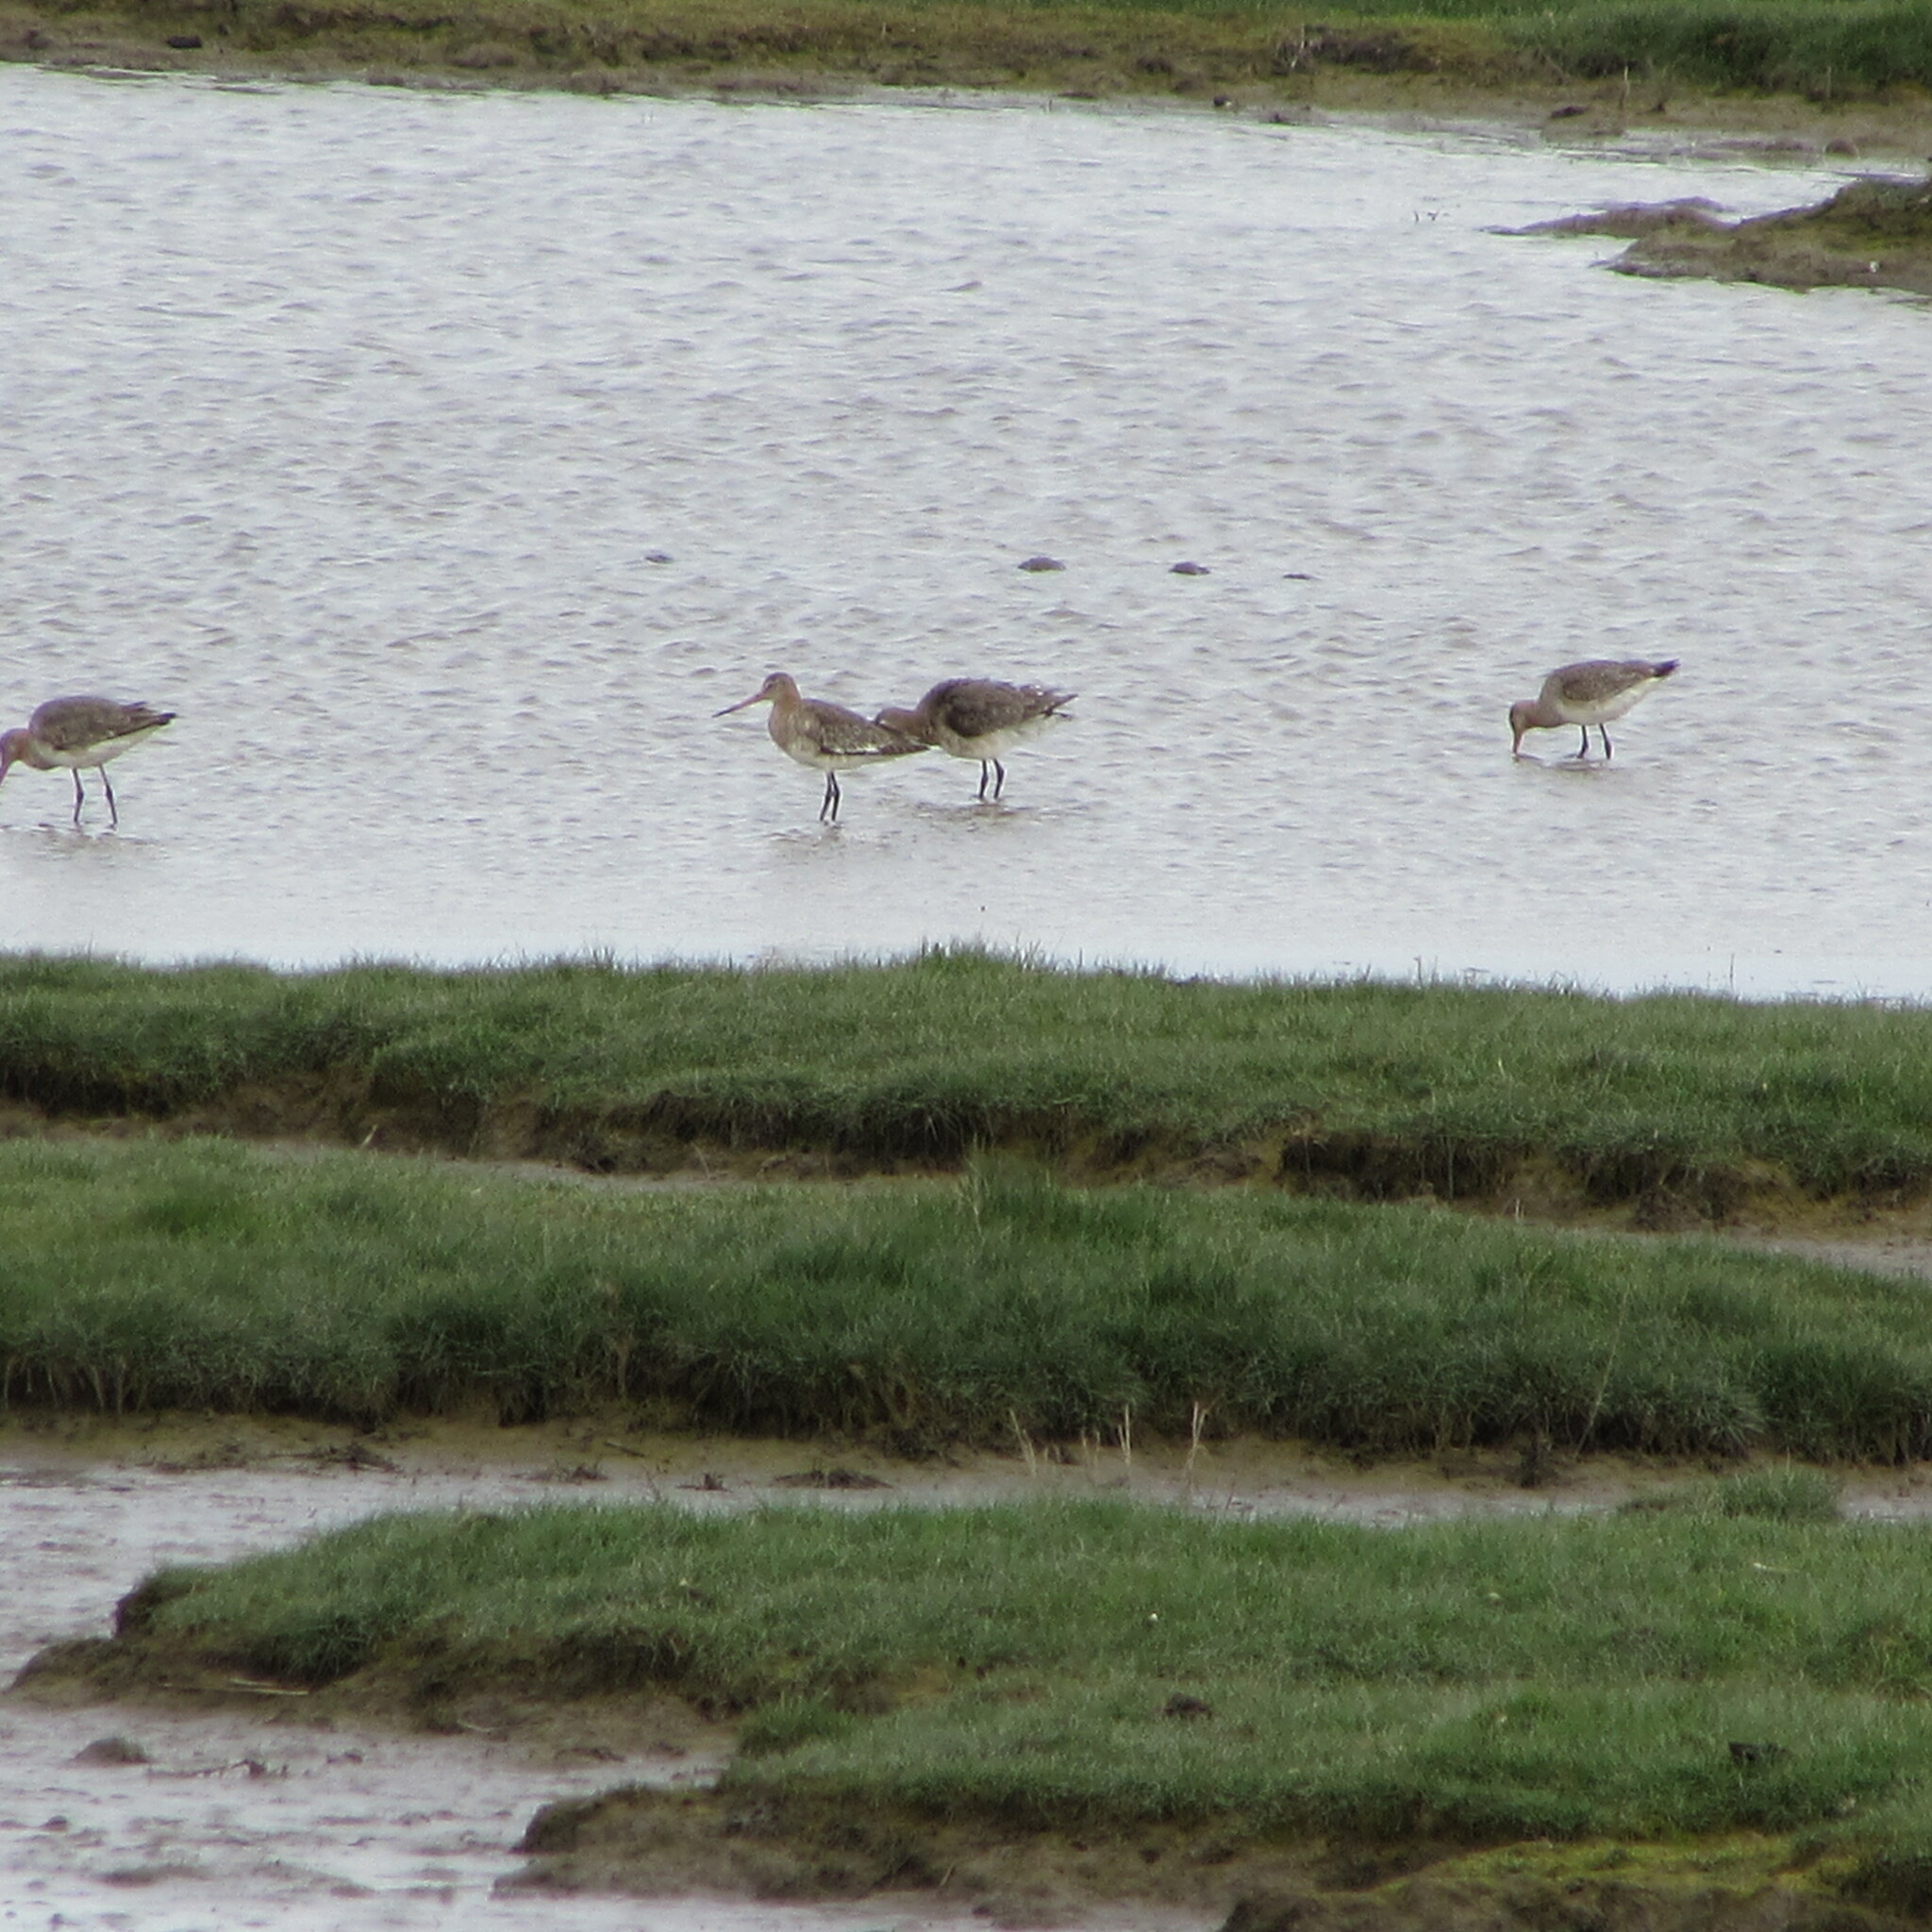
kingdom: Animalia
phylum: Chordata
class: Aves
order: Charadriiformes
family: Scolopacidae
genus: Limosa
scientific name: Limosa limosa
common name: Black-tailed godwit
